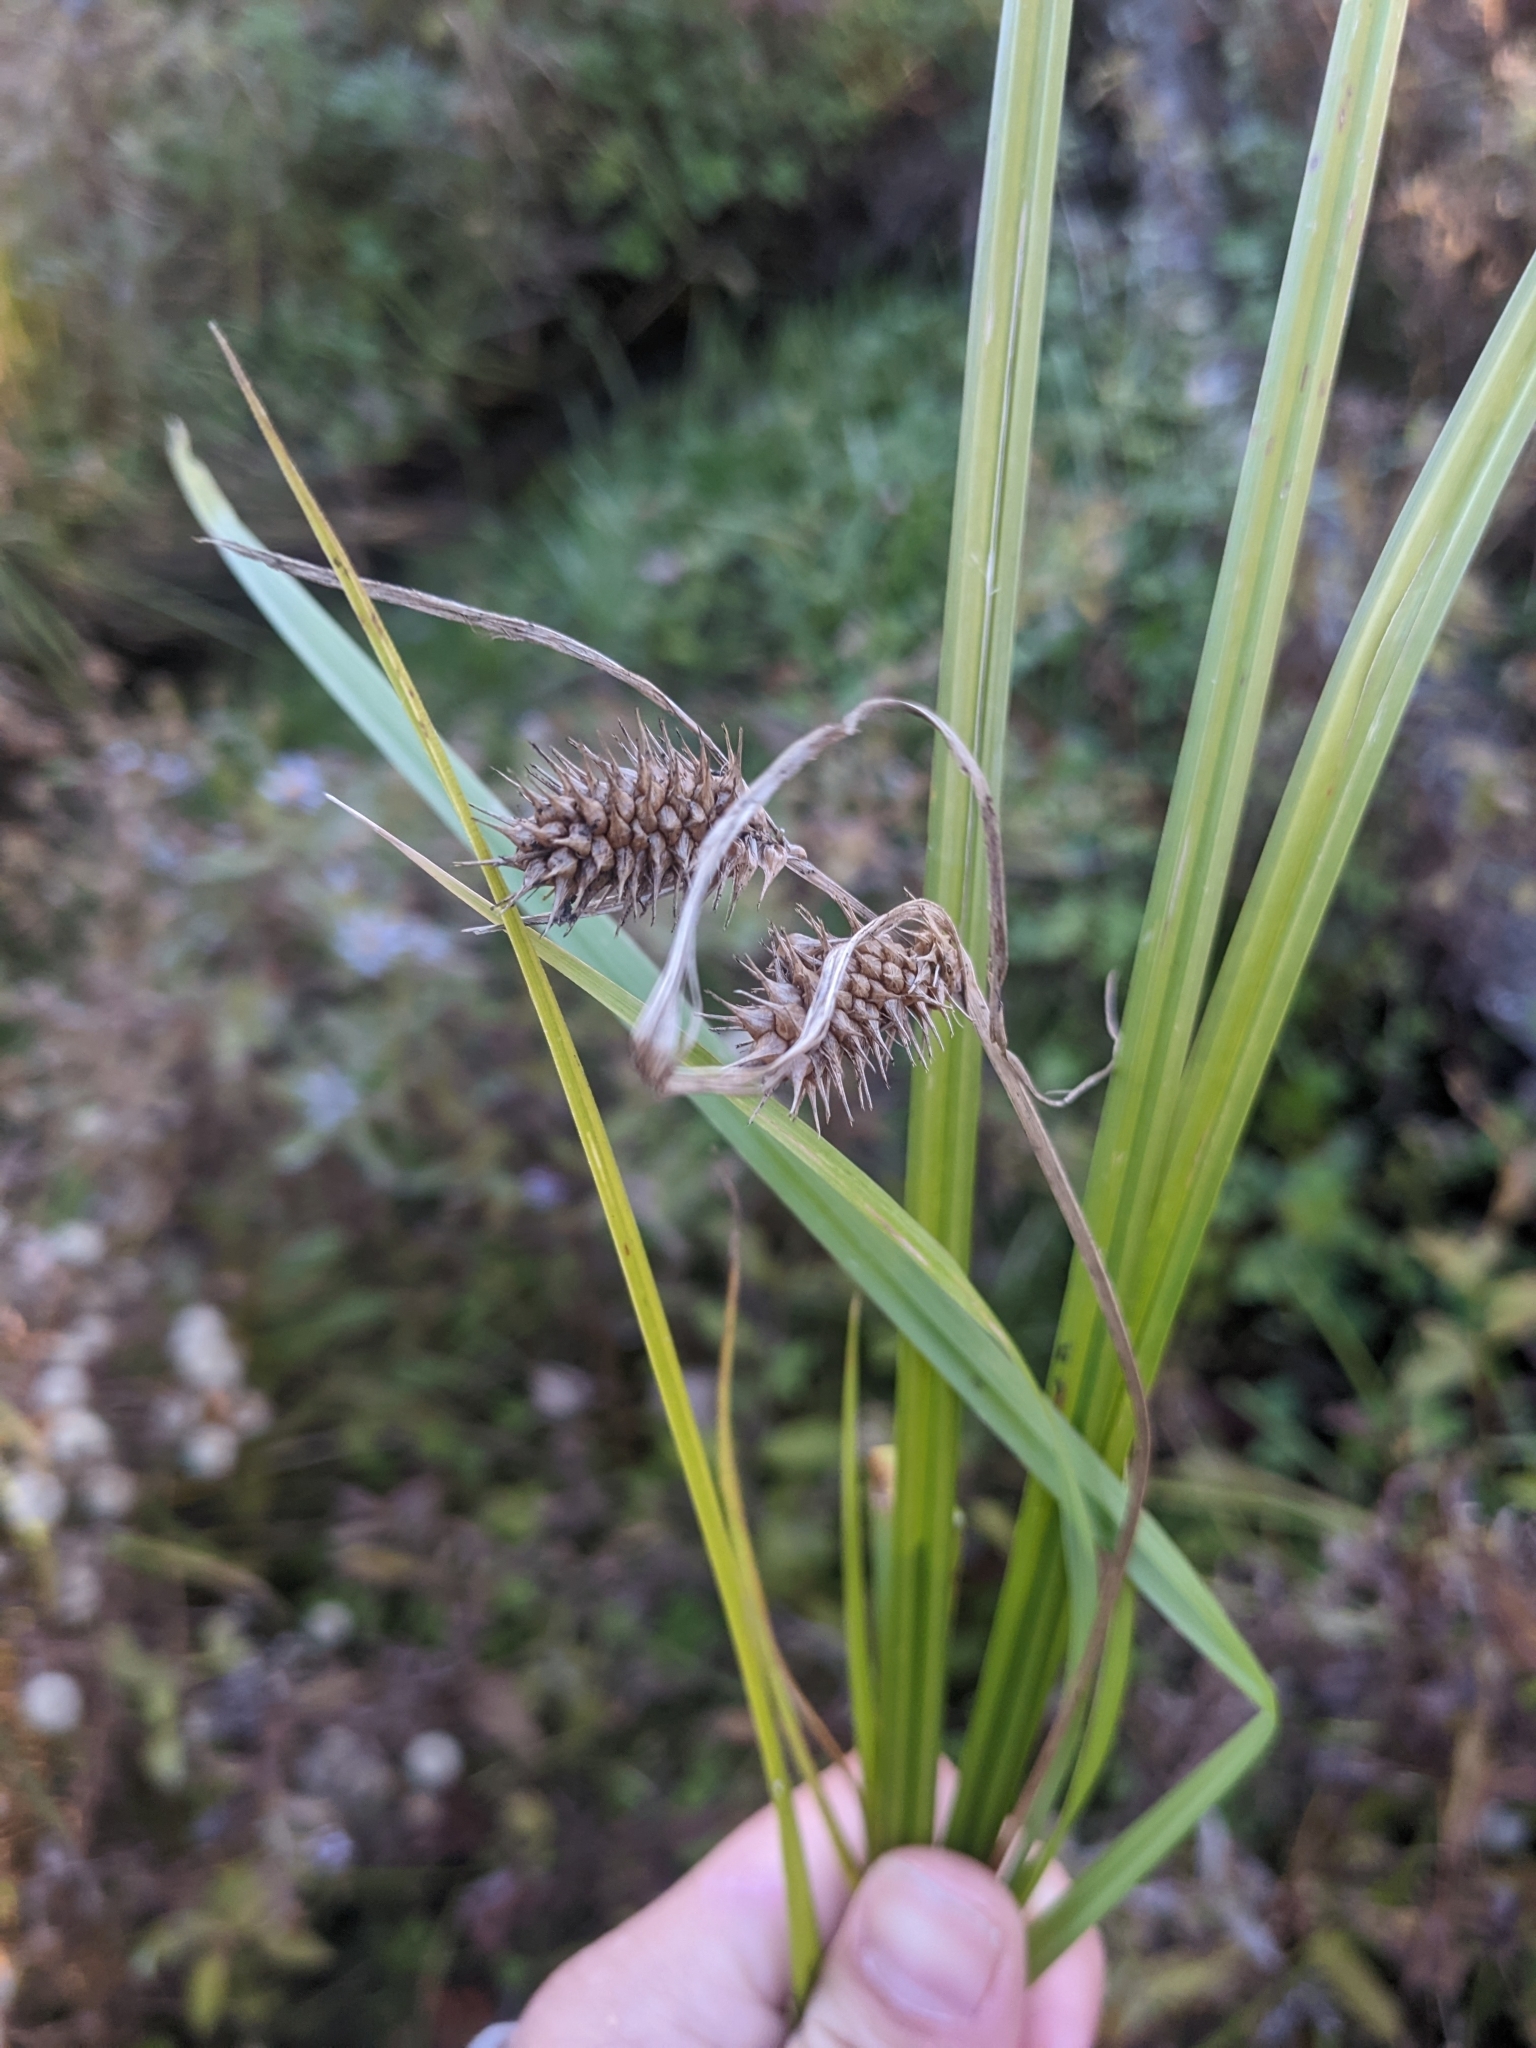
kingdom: Plantae
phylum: Tracheophyta
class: Liliopsida
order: Poales
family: Cyperaceae
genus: Carex
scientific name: Carex lurida
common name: Sallow sedge
